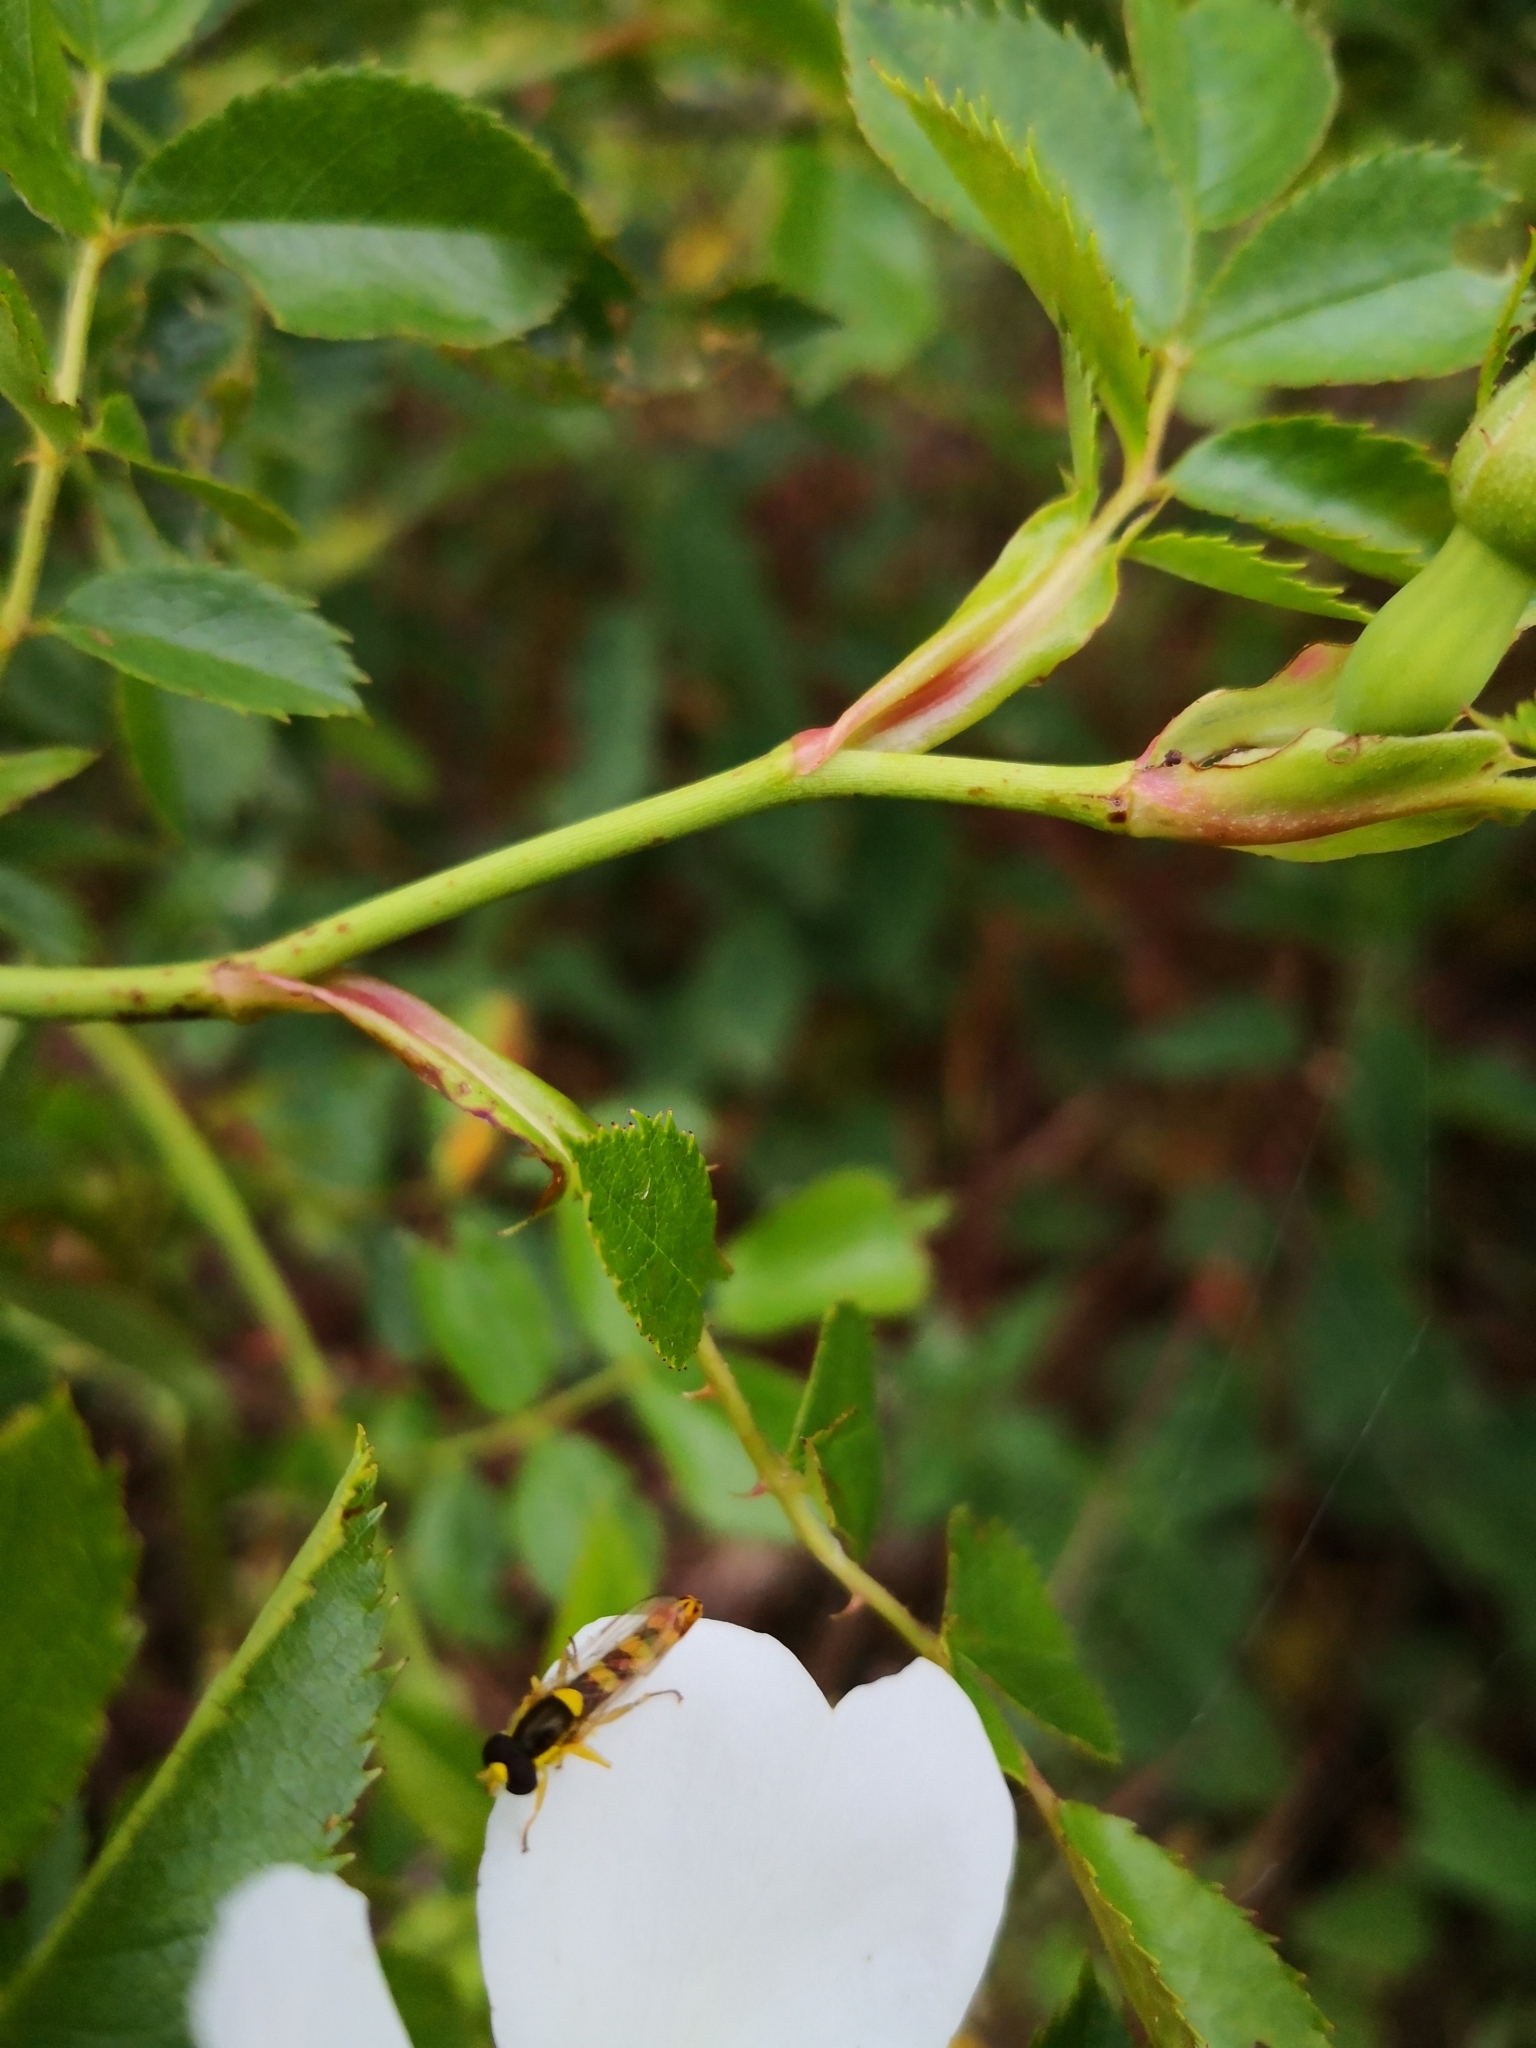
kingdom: Animalia
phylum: Arthropoda
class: Insecta
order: Diptera
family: Syrphidae
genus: Sphaerophoria
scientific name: Sphaerophoria scripta
